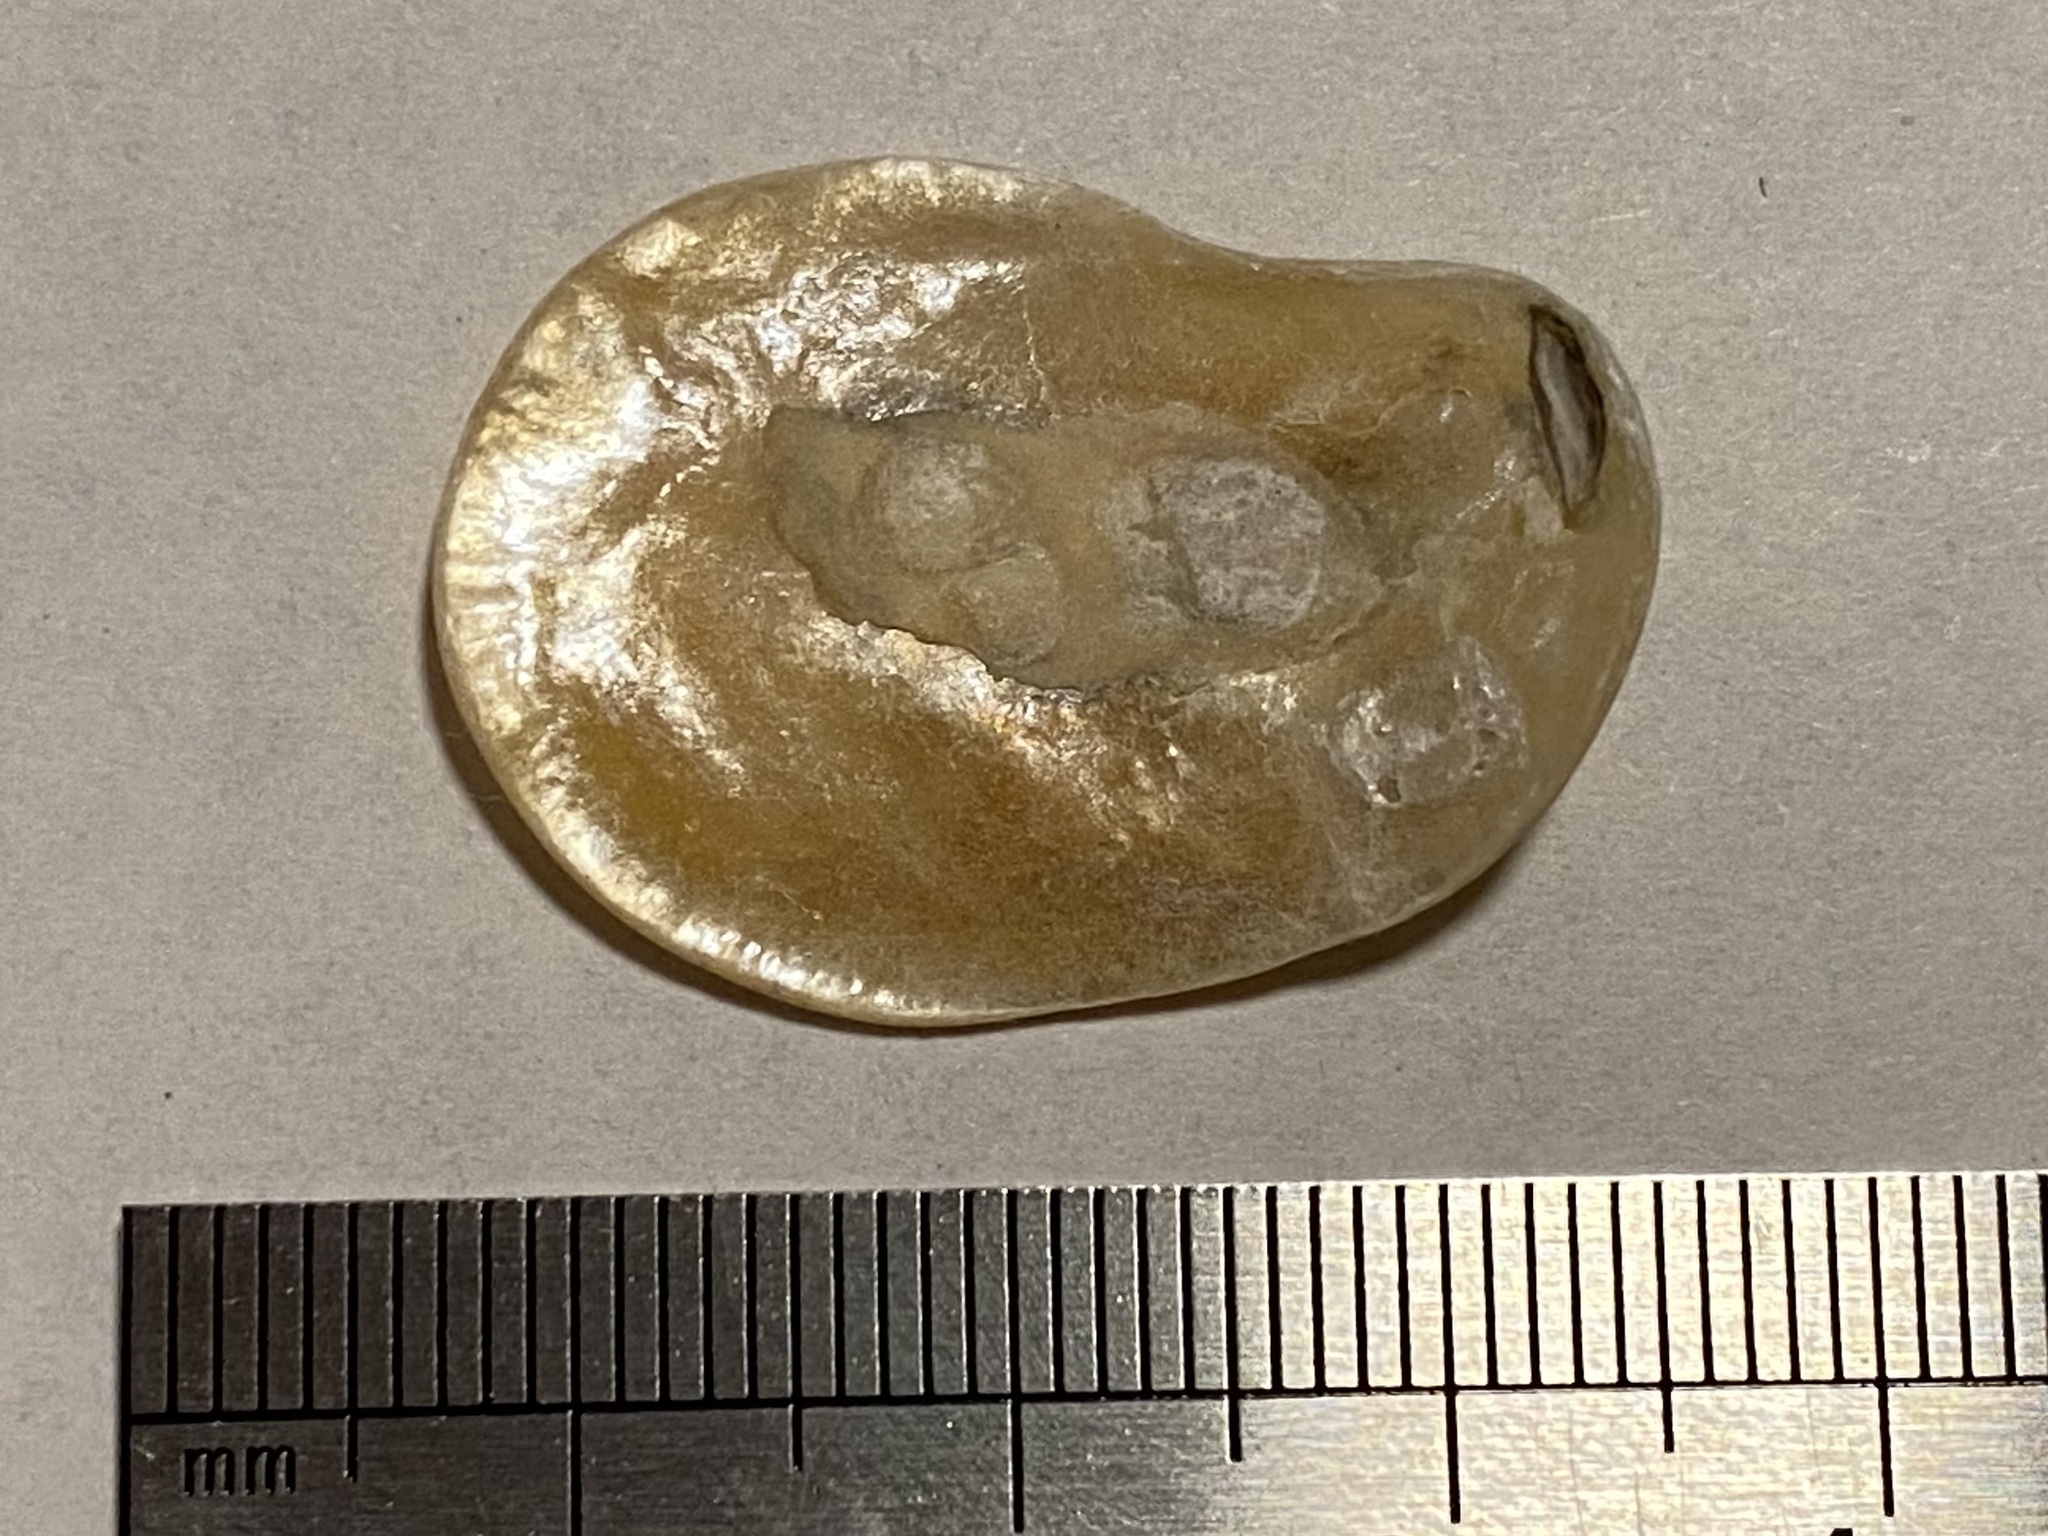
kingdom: Animalia
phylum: Mollusca
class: Bivalvia
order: Pectinida
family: Anomiidae
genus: Anomia
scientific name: Anomia simplex
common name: Common jingle shell
